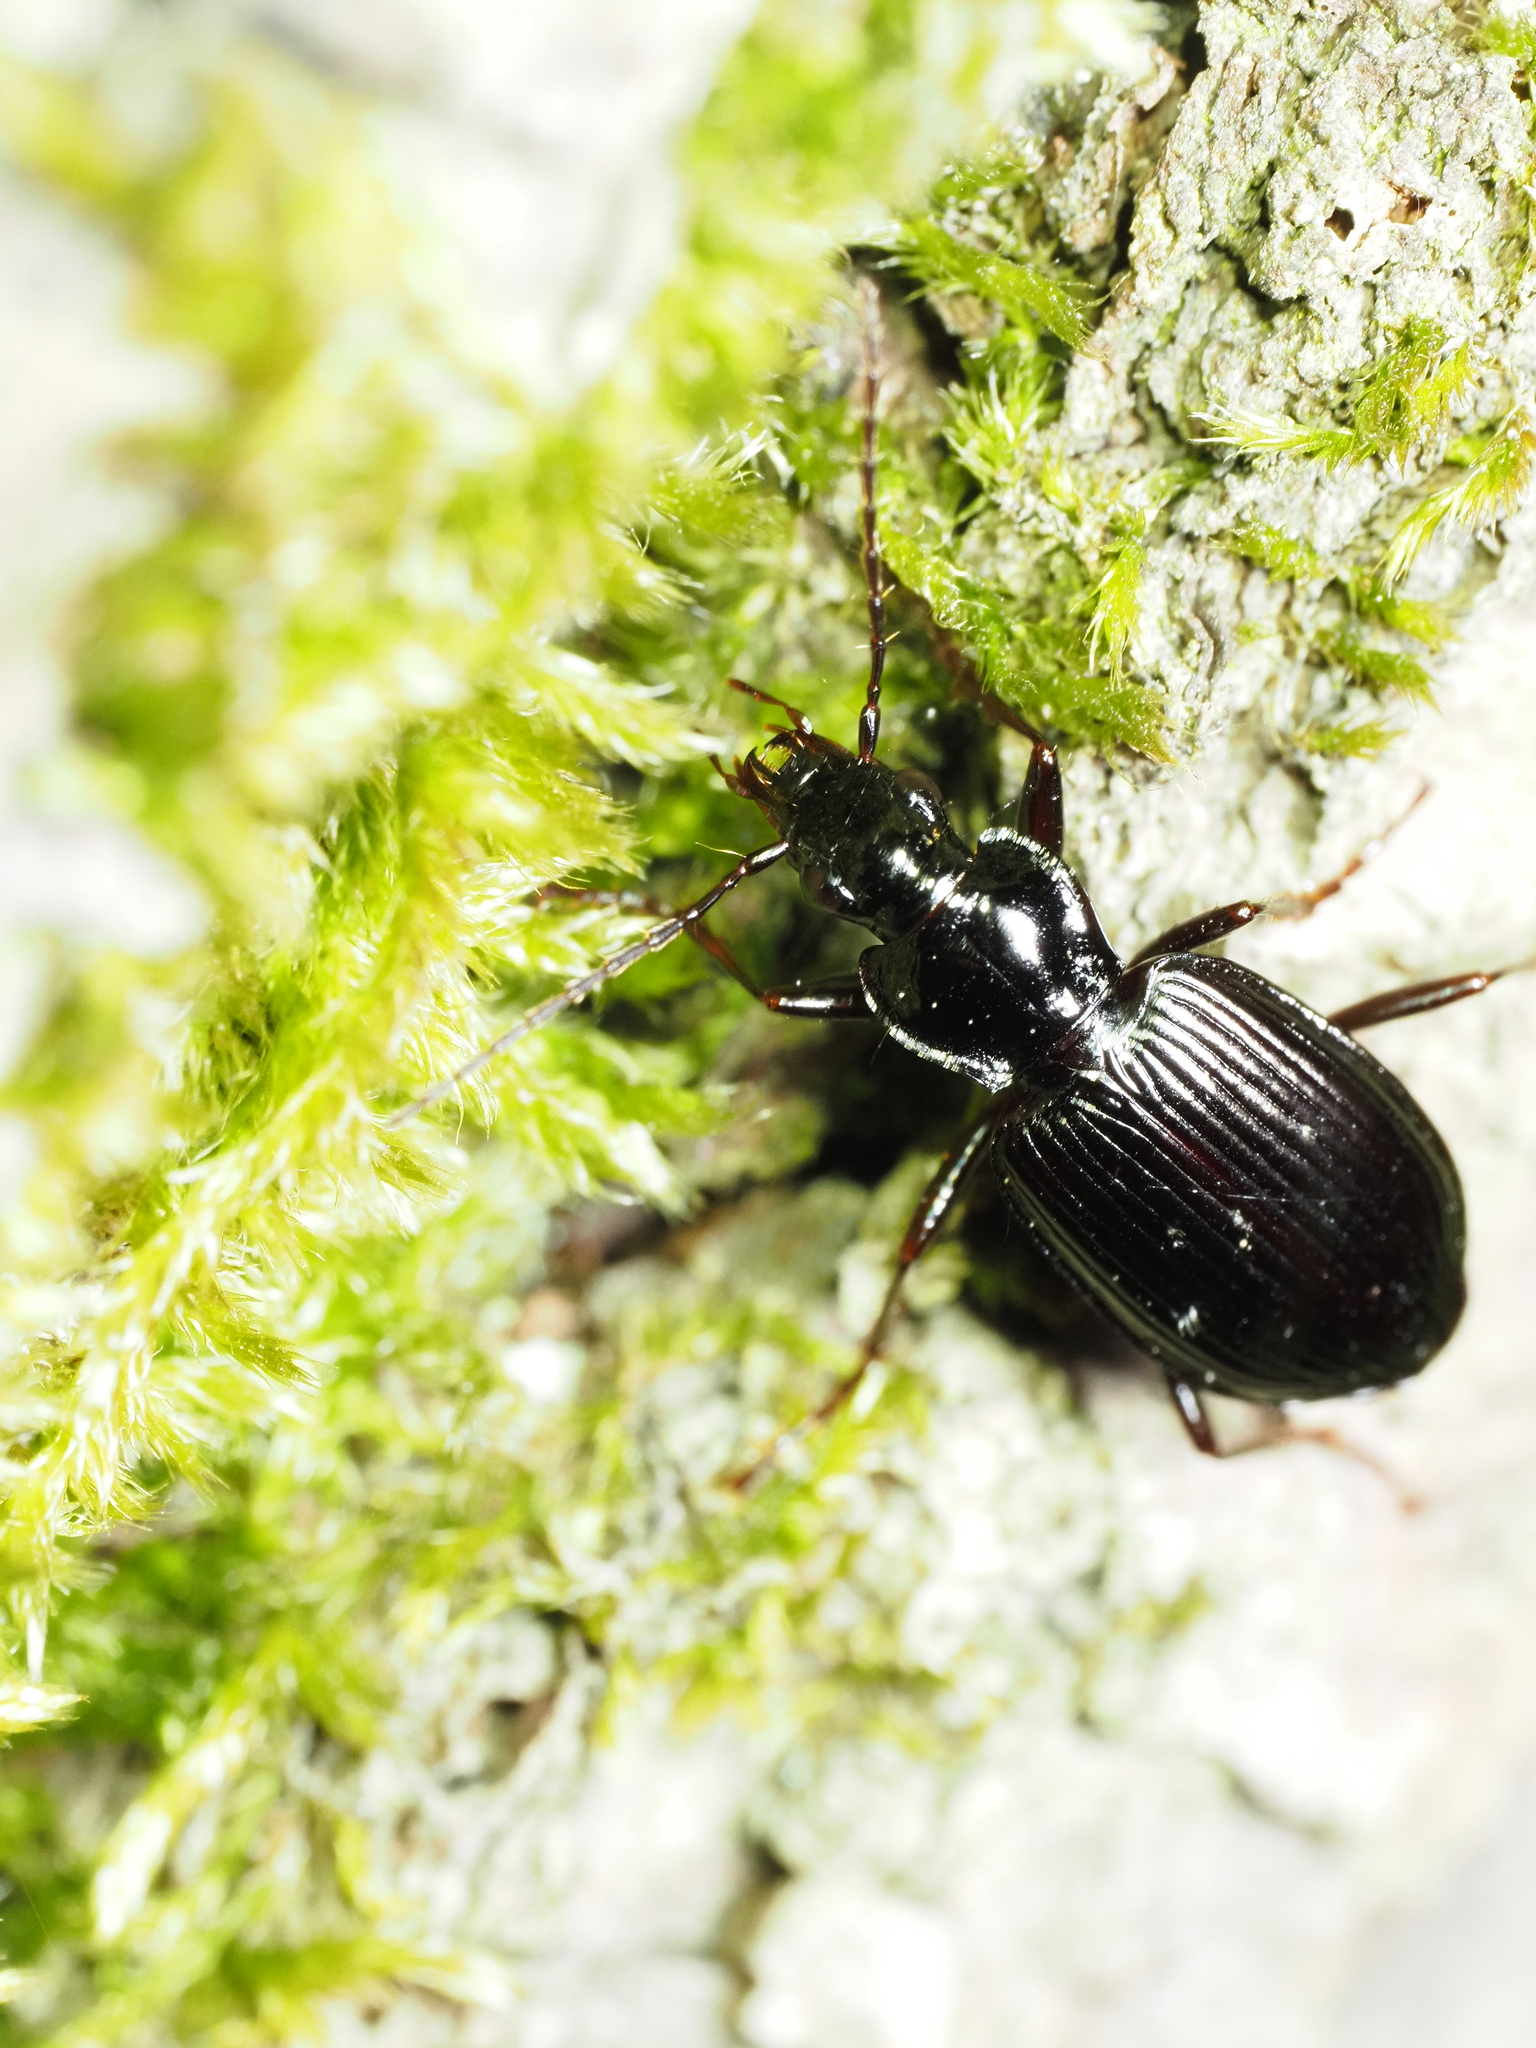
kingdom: Animalia
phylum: Arthropoda
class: Insecta
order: Coleoptera
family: Tenebrionidae
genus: Stenomax
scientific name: Stenomax aeneus
